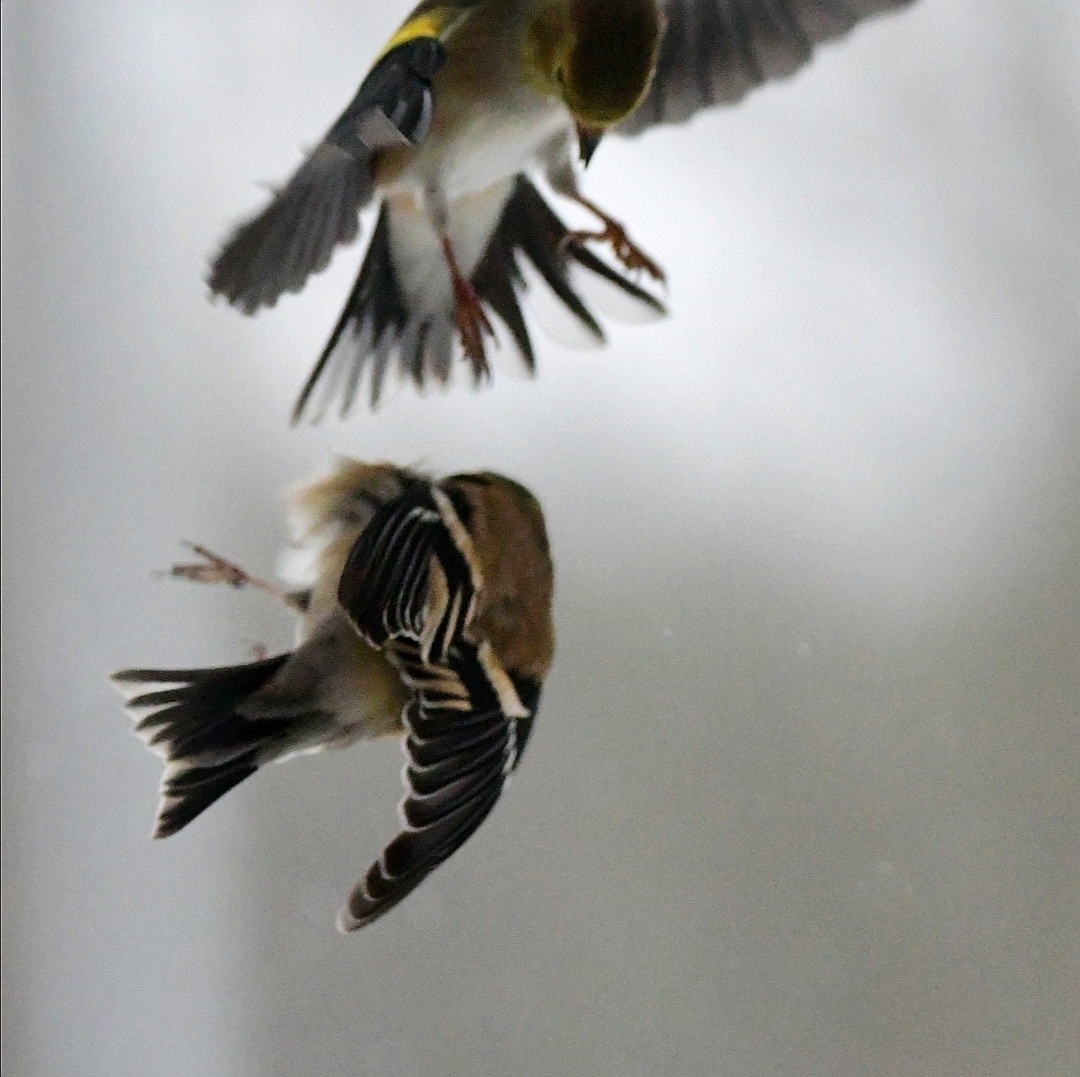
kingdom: Animalia
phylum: Chordata
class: Aves
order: Passeriformes
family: Fringillidae
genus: Spinus
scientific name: Spinus tristis
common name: American goldfinch
